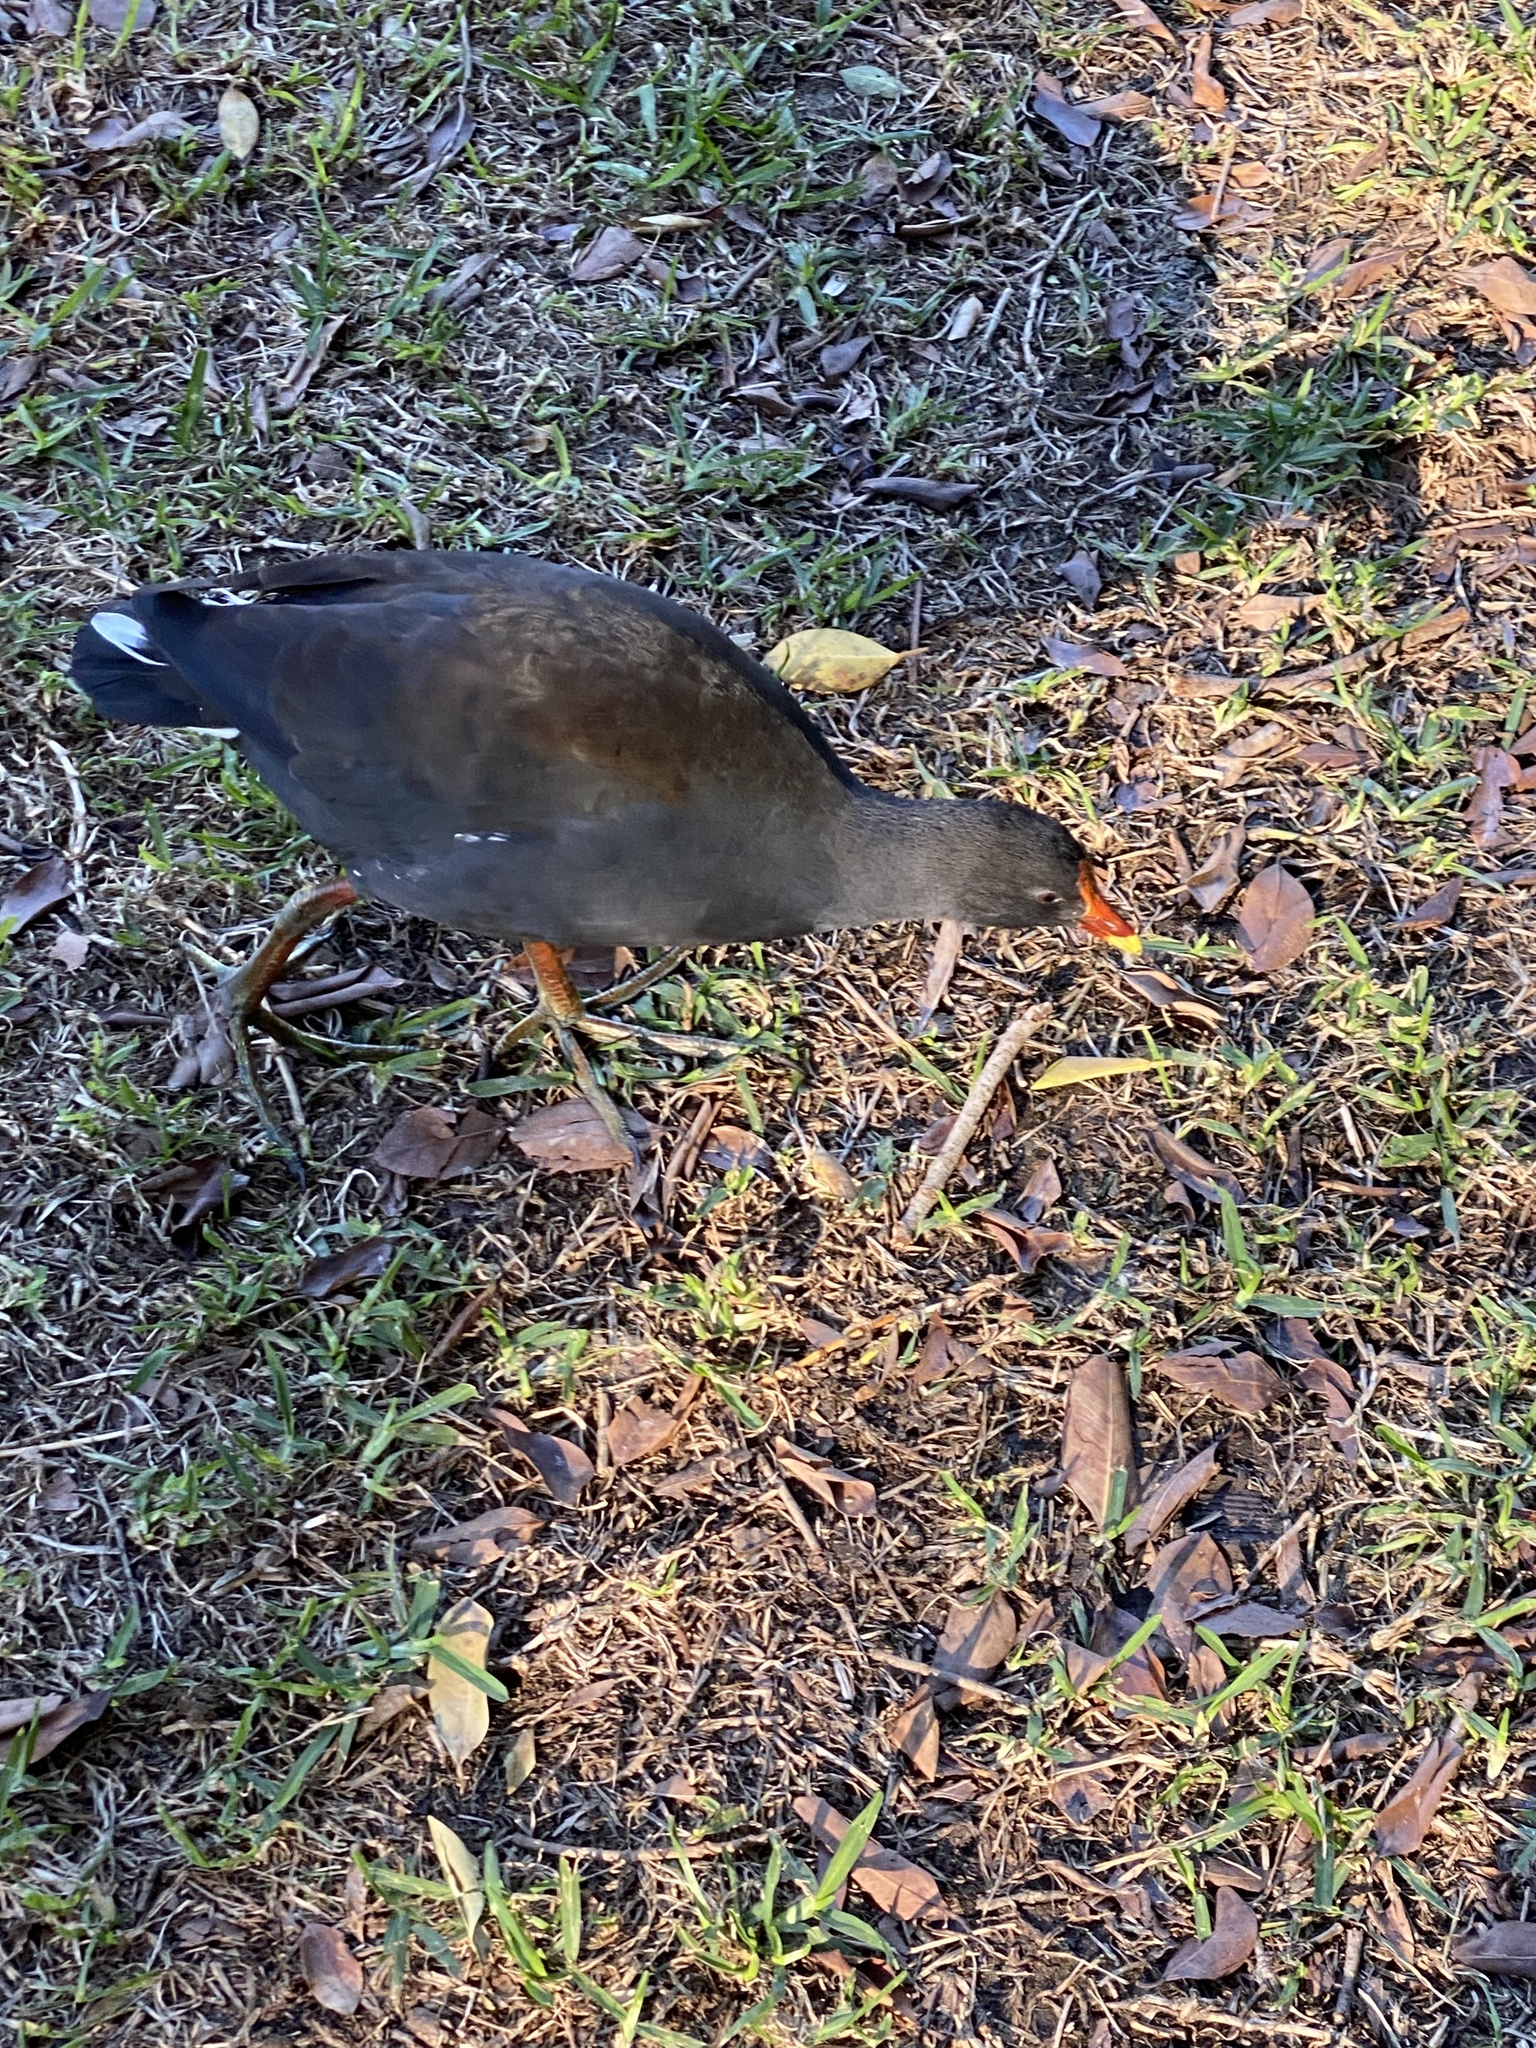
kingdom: Animalia
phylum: Chordata
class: Aves
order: Gruiformes
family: Rallidae
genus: Gallinula
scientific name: Gallinula tenebrosa
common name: Dusky moorhen
